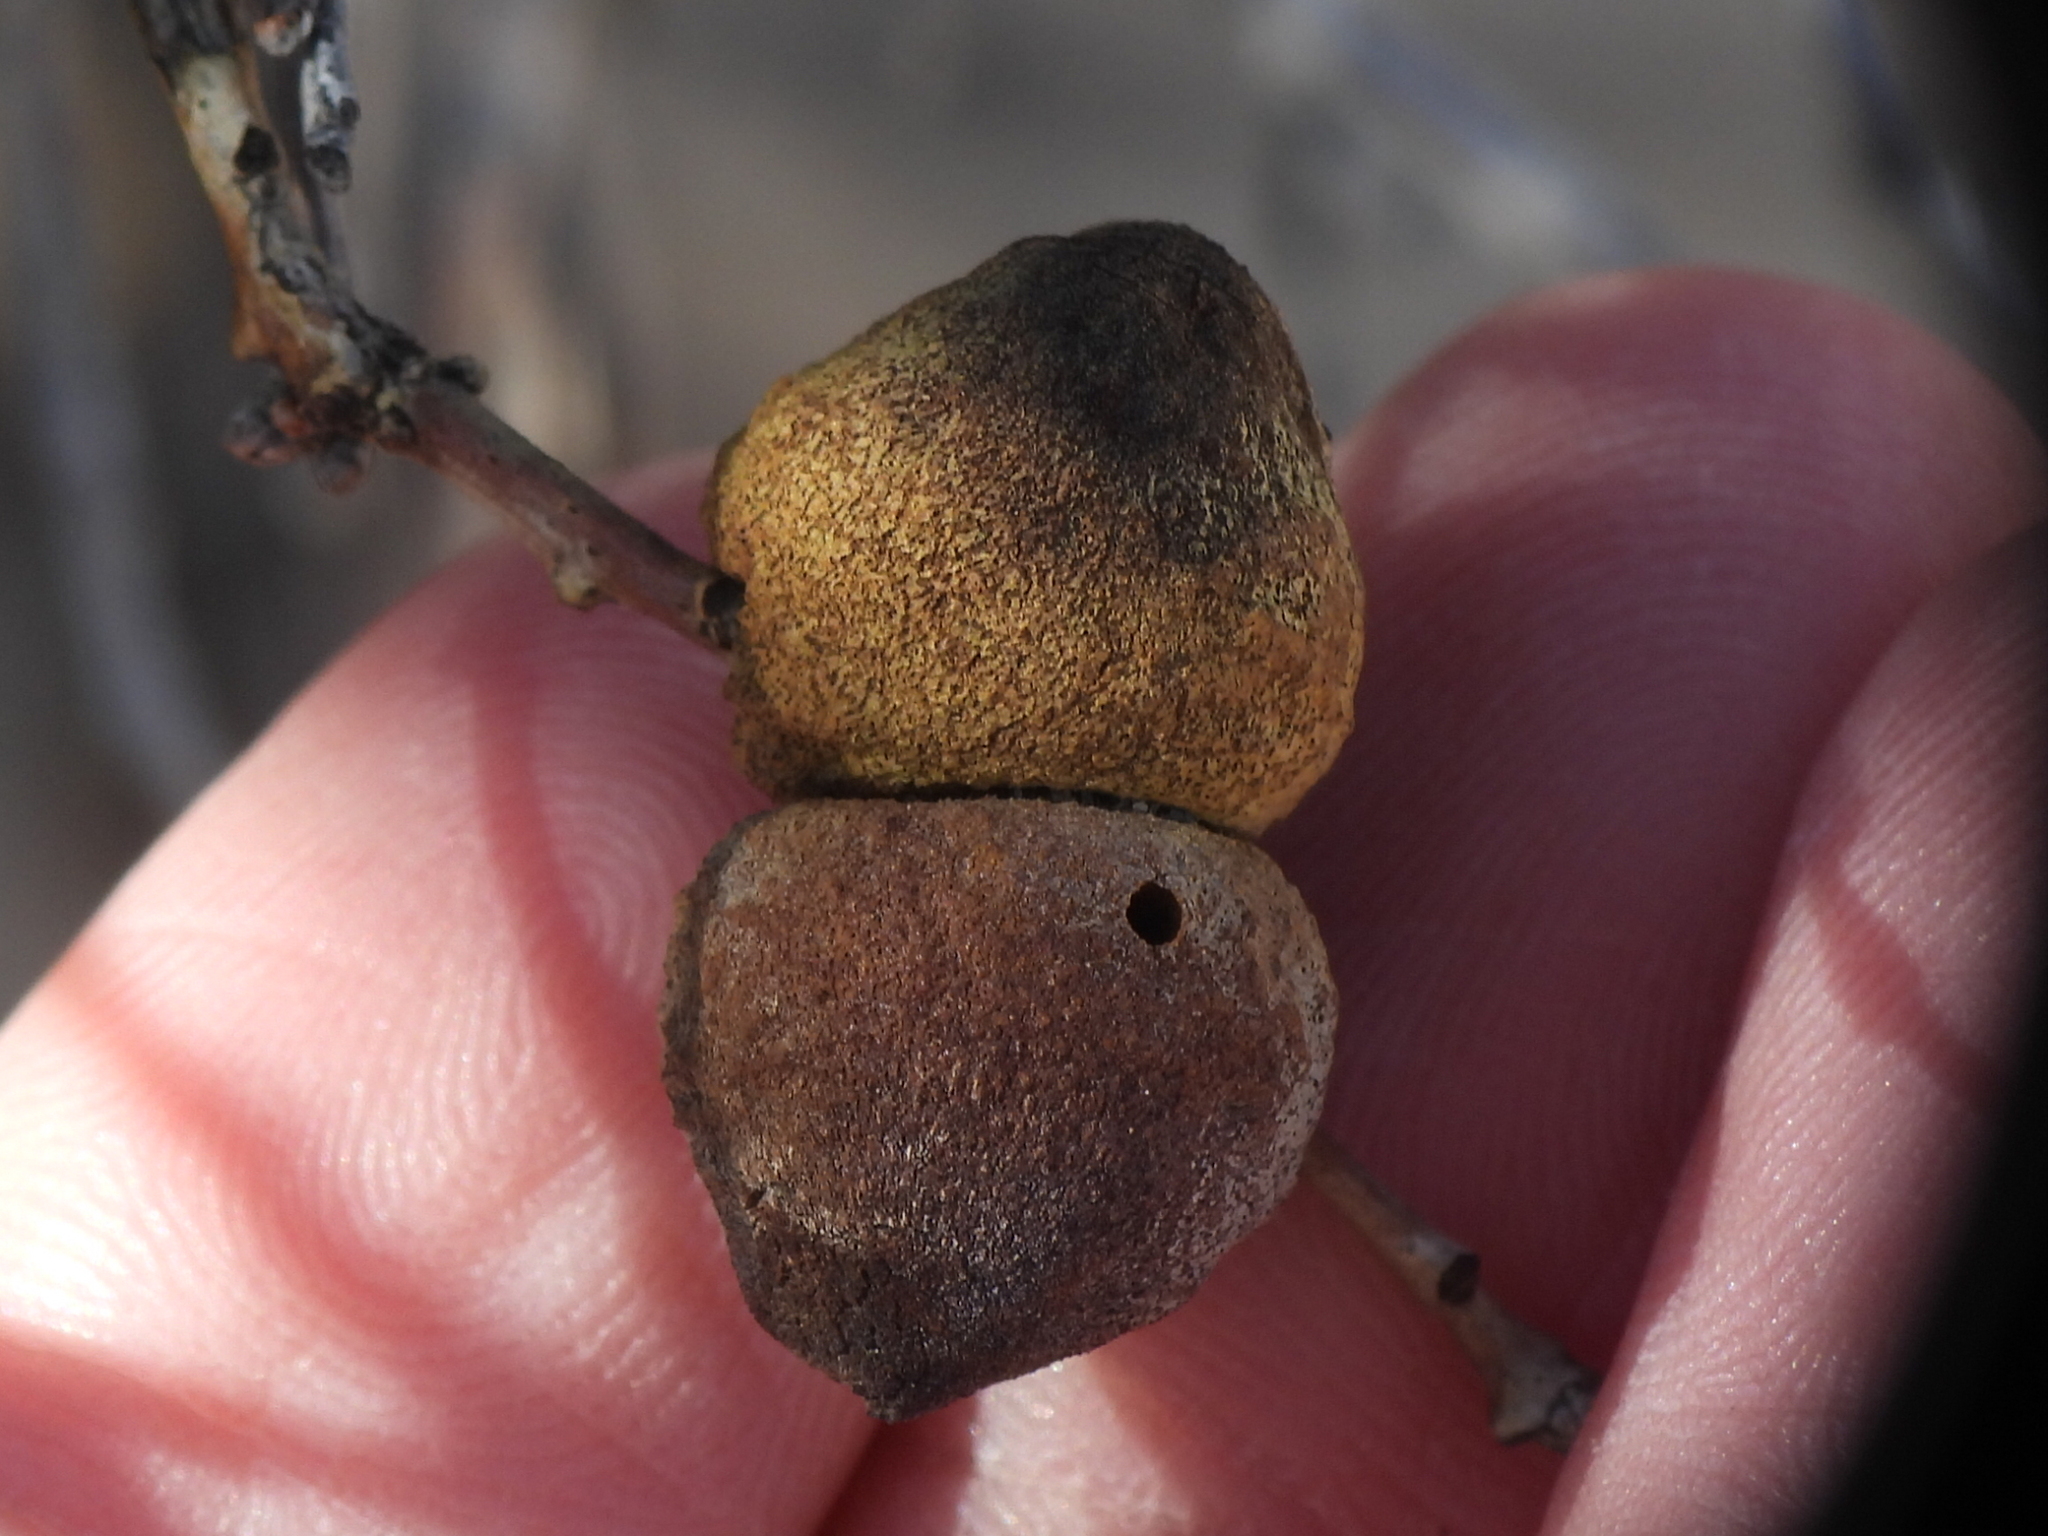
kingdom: Animalia
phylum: Arthropoda
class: Insecta
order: Hymenoptera
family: Cynipidae
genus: Disholcaspis
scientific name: Disholcaspis erugomamma
